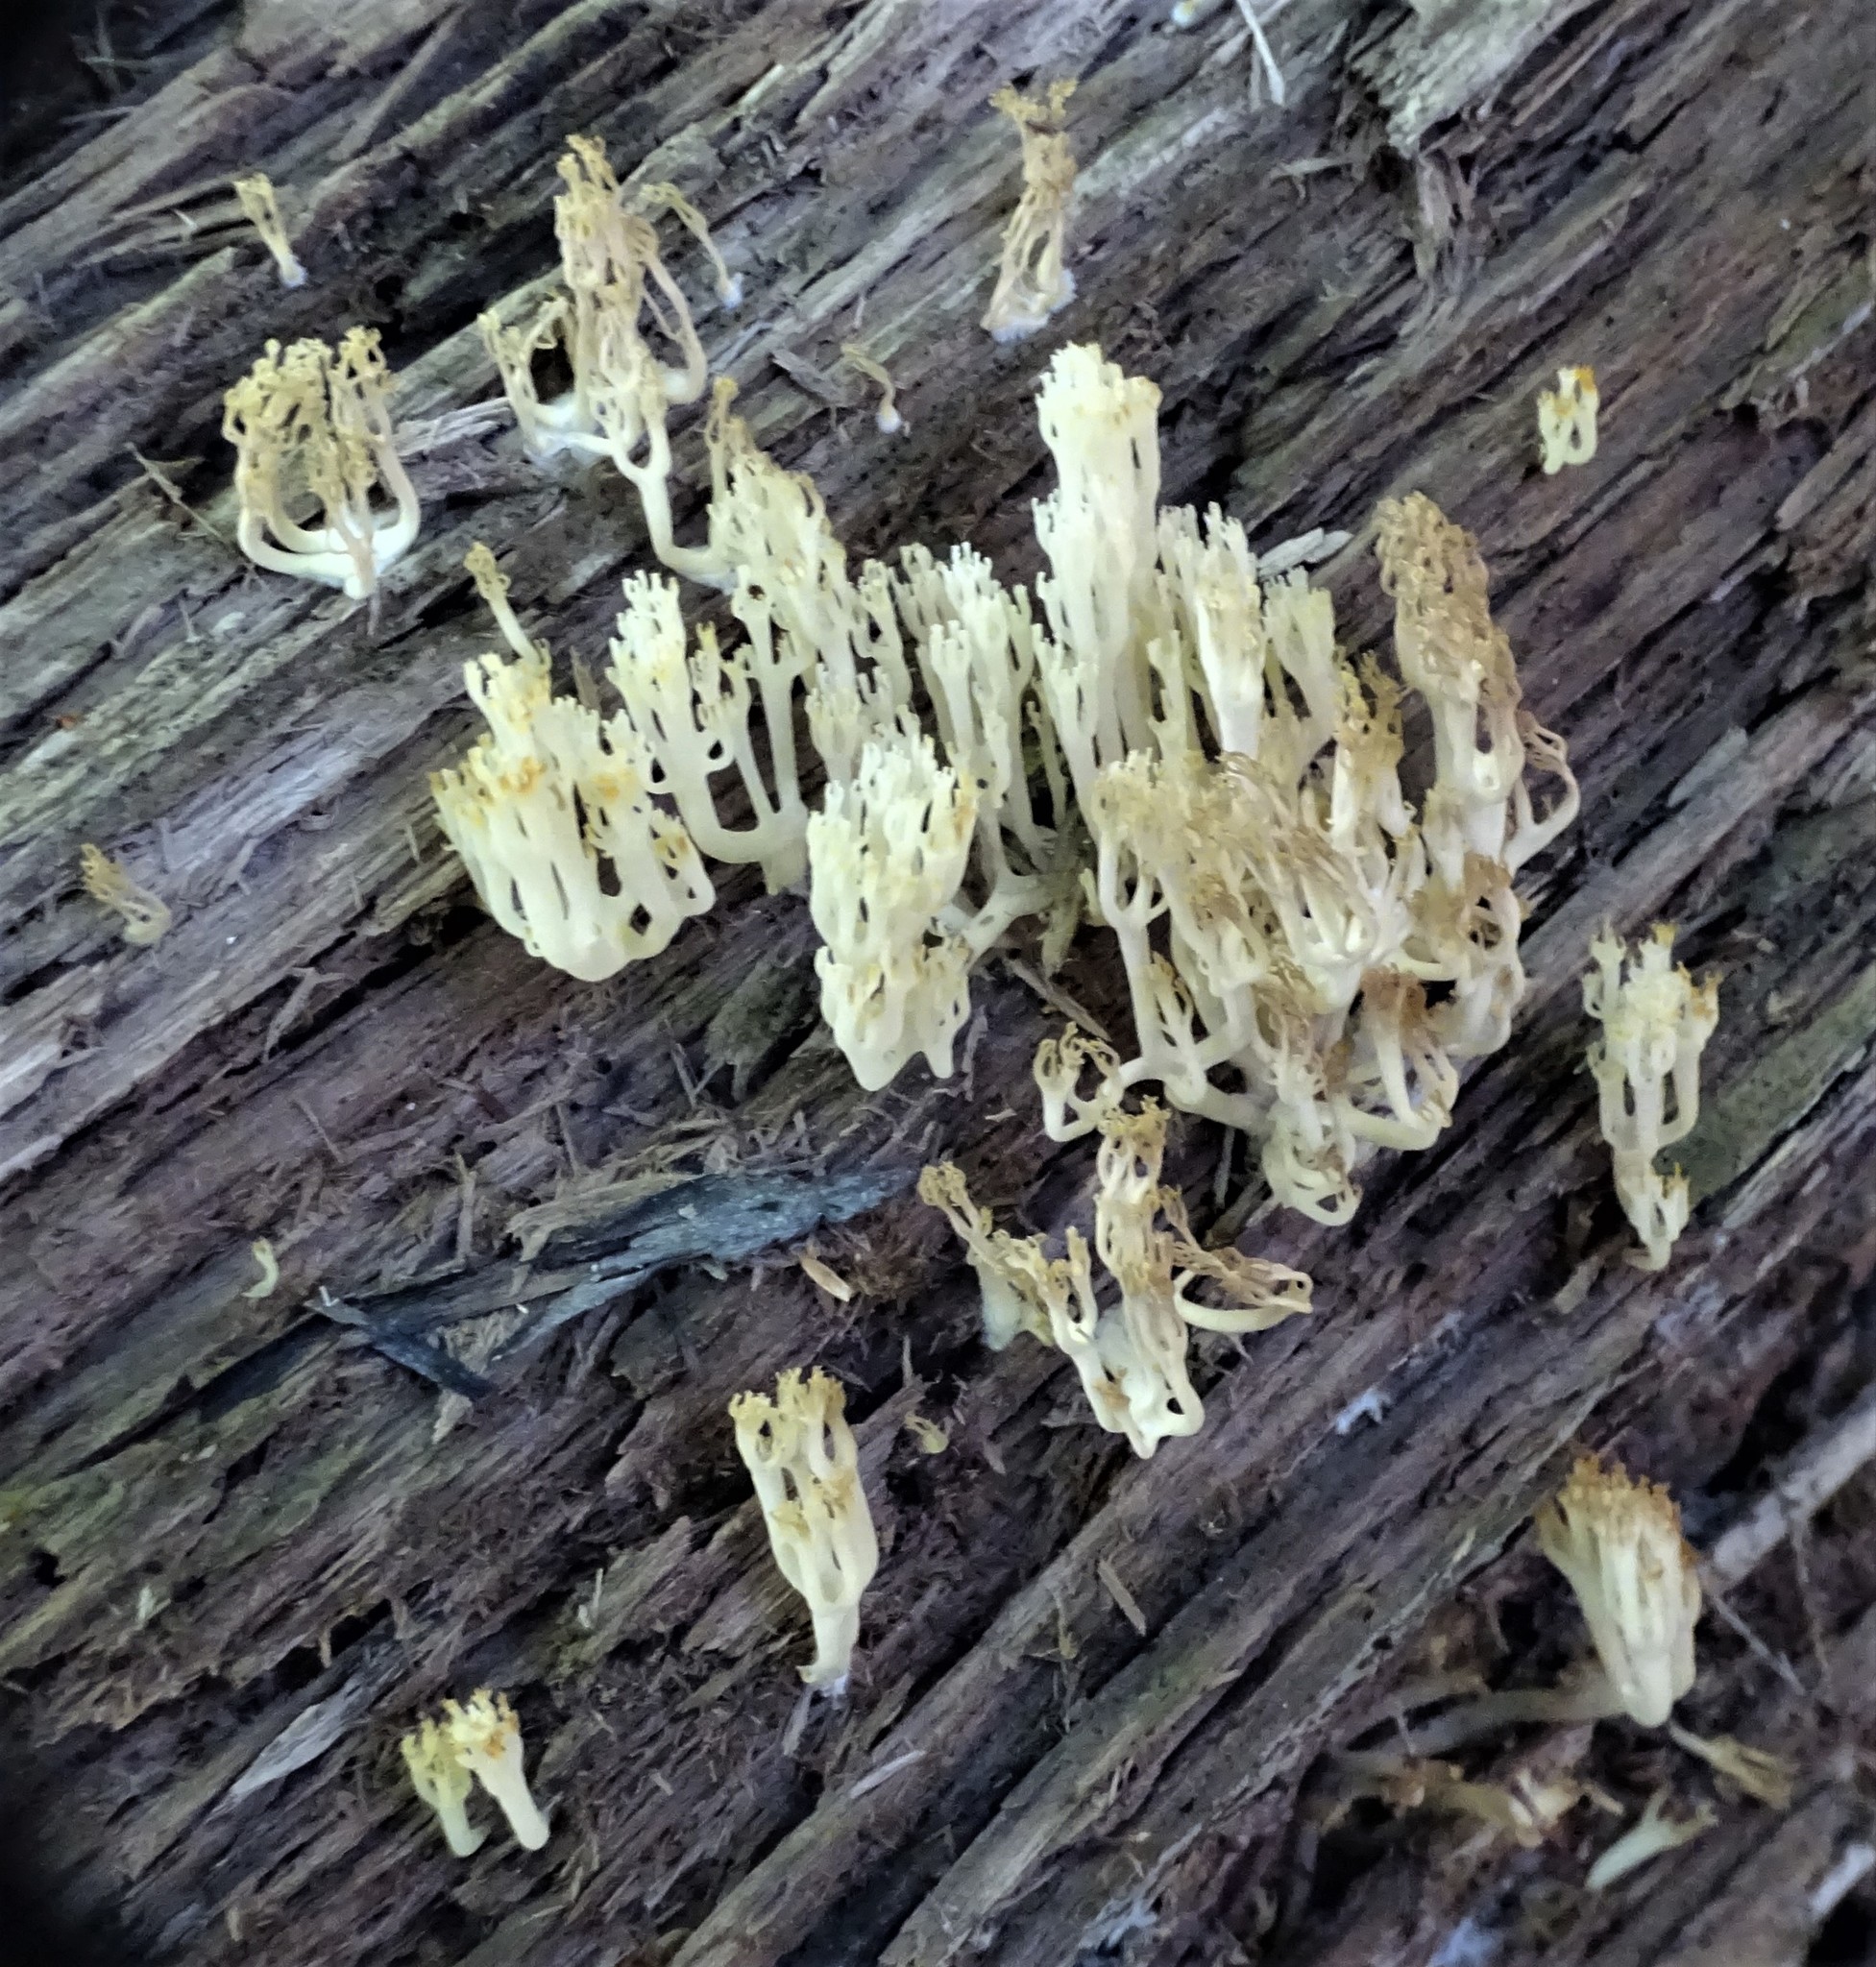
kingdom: Fungi
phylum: Basidiomycota
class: Agaricomycetes
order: Russulales
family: Auriscalpiaceae
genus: Artomyces
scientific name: Artomyces pyxidatus
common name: Crown-tipped coral fungus
